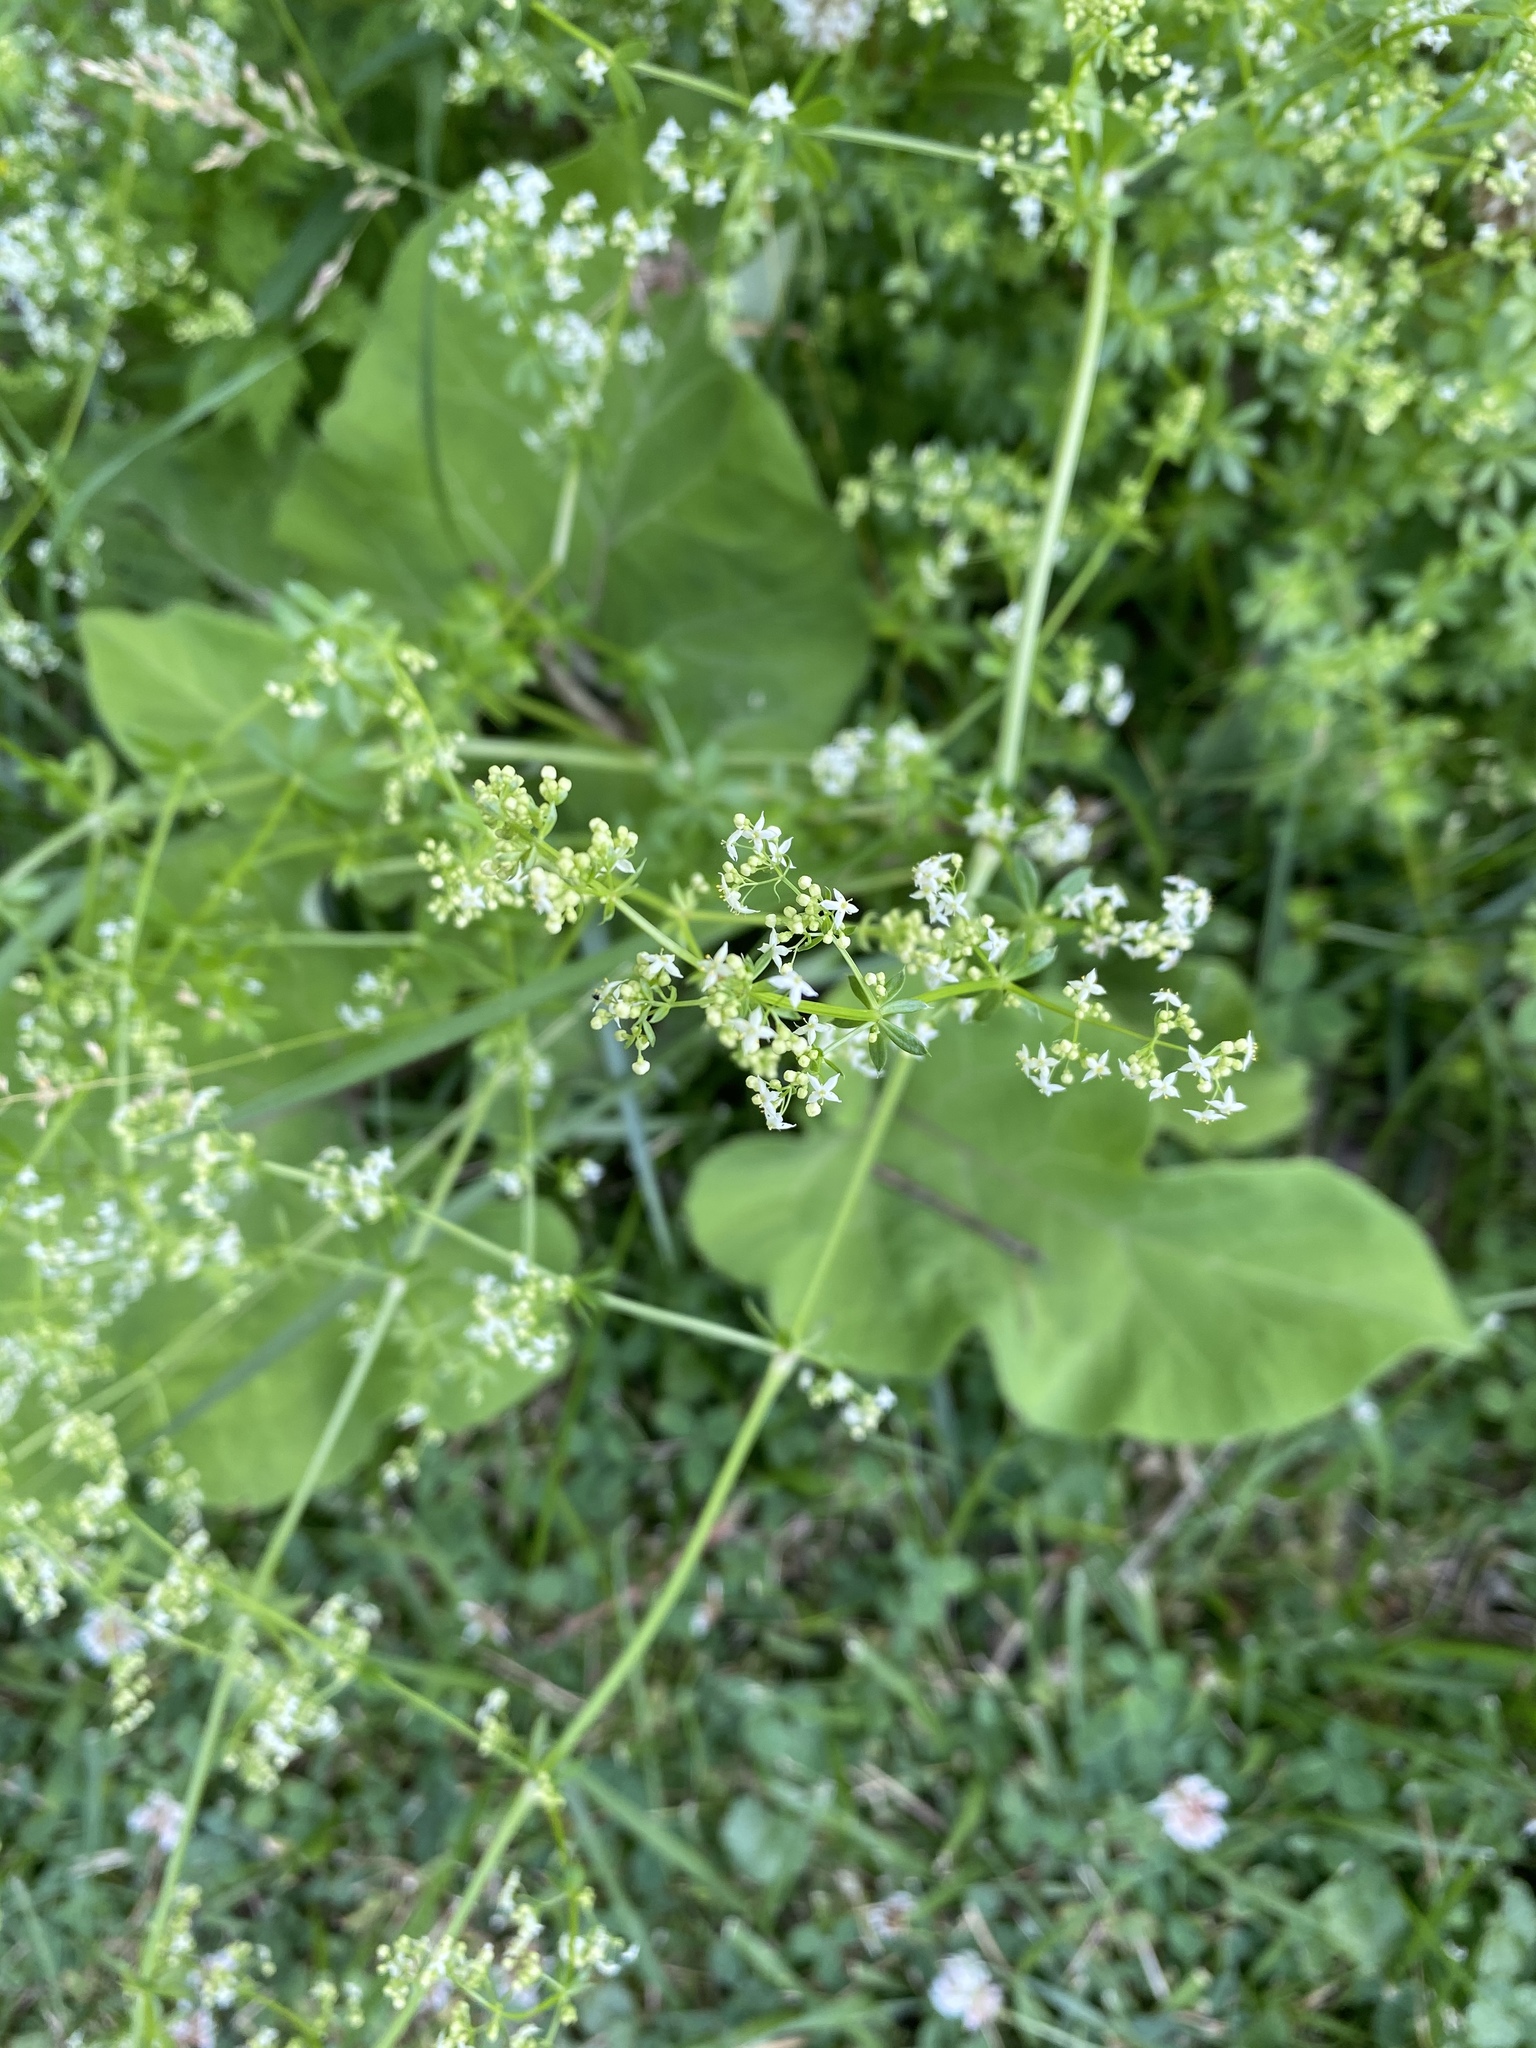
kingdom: Plantae
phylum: Tracheophyta
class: Magnoliopsida
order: Gentianales
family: Rubiaceae
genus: Galium
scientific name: Galium mollugo
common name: Hedge bedstraw
